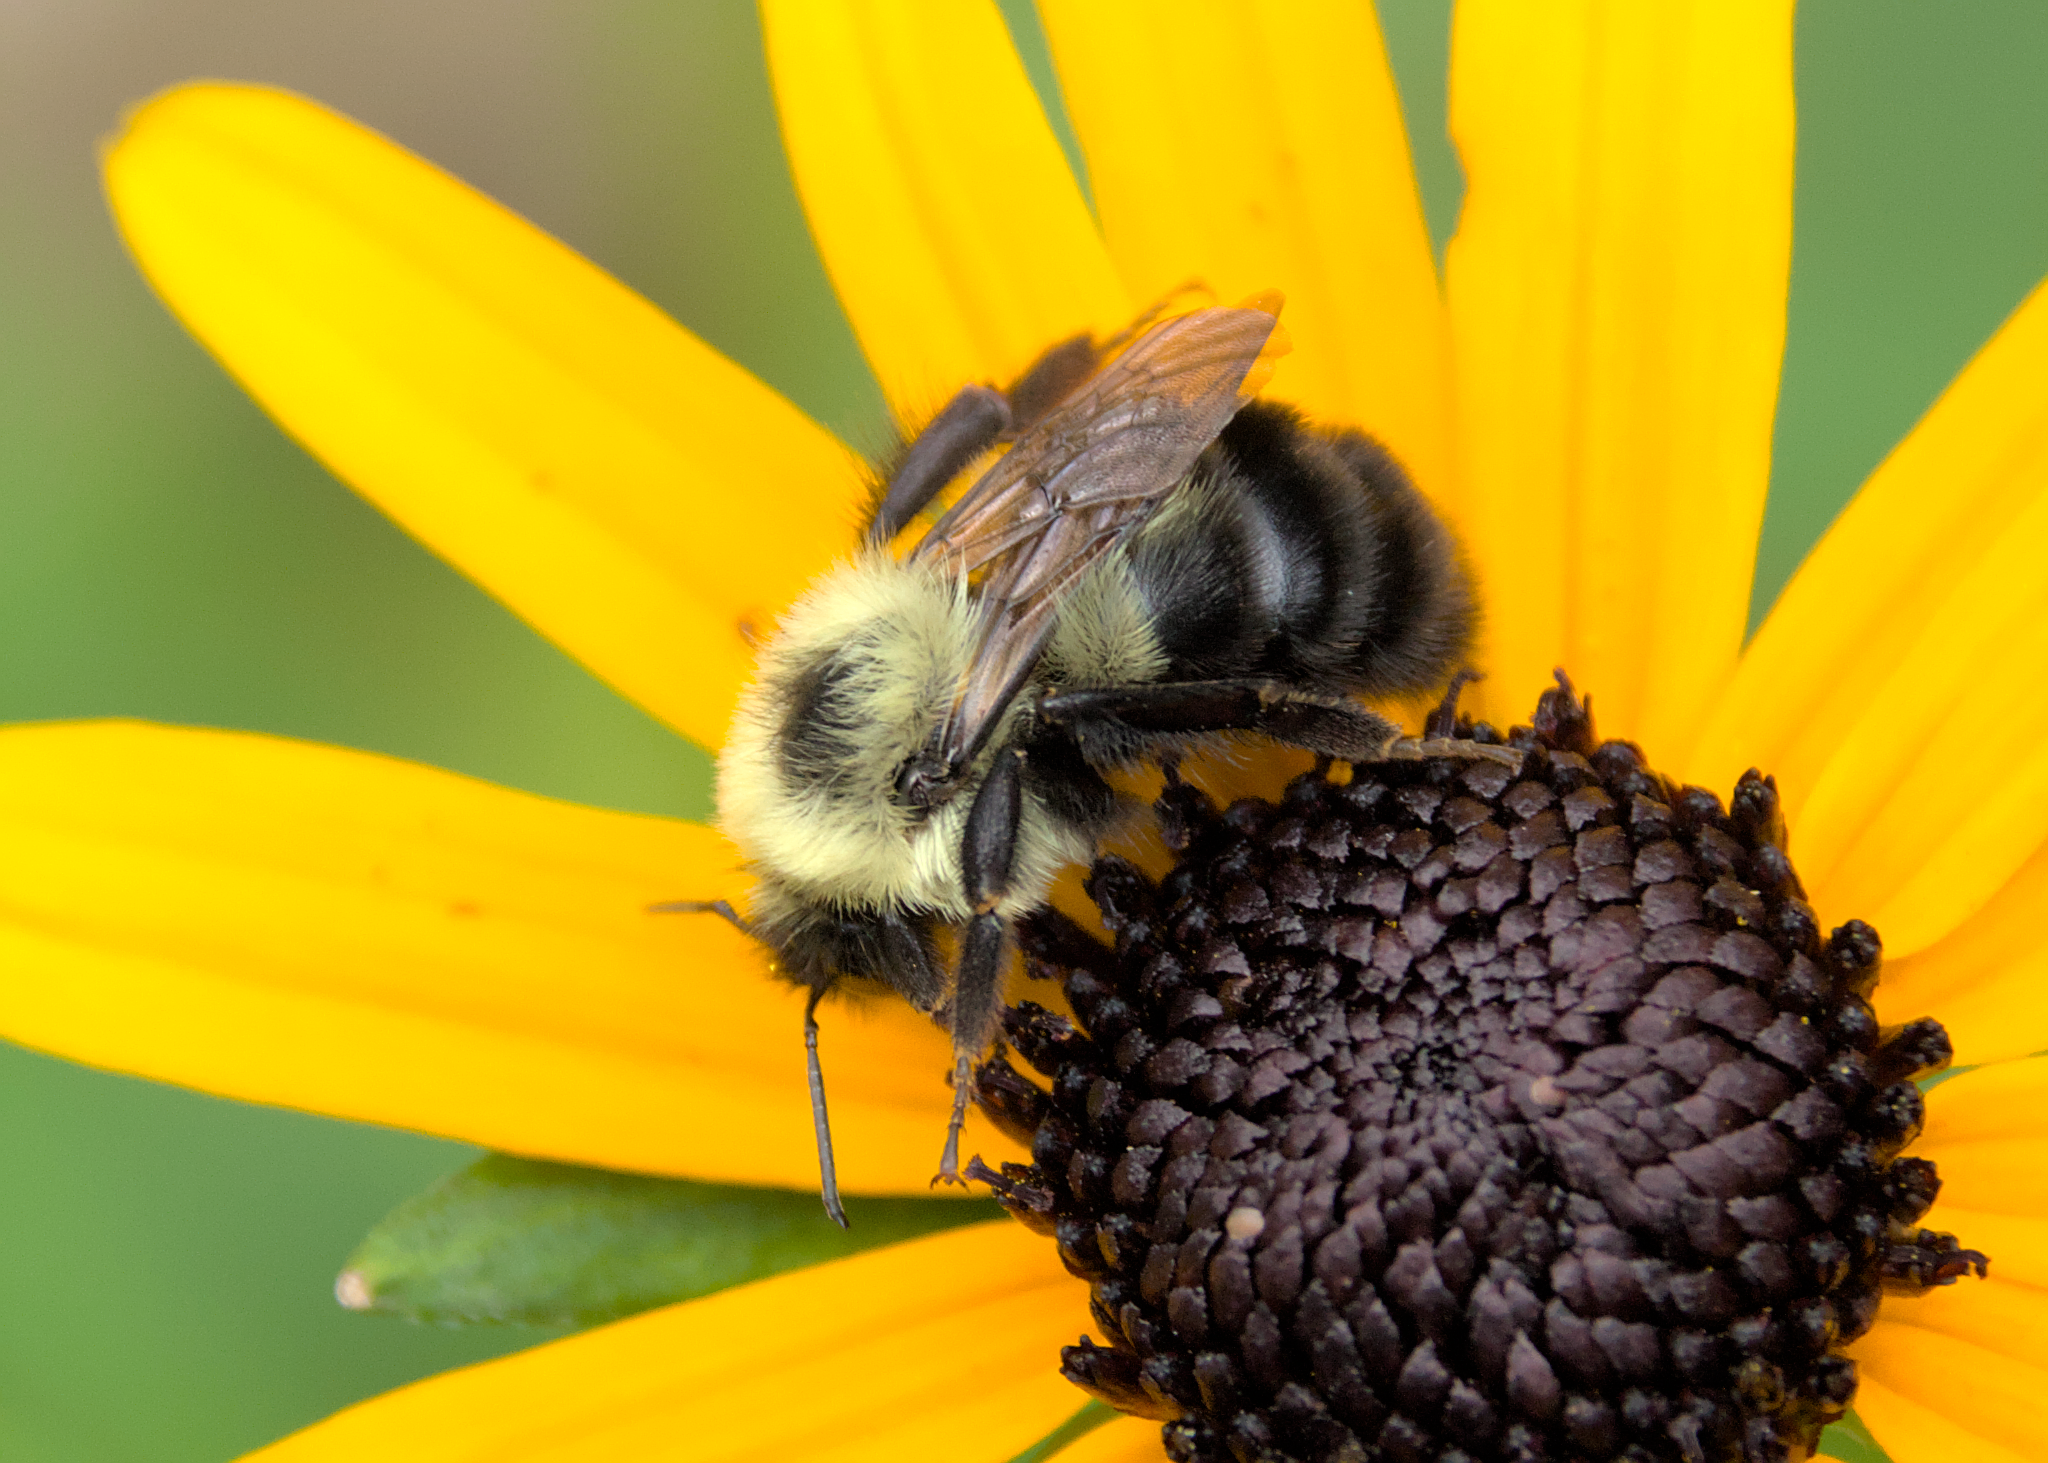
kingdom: Animalia
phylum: Arthropoda
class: Insecta
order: Hymenoptera
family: Apidae
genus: Bombus
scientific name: Bombus bimaculatus
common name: Two-spotted bumble bee
